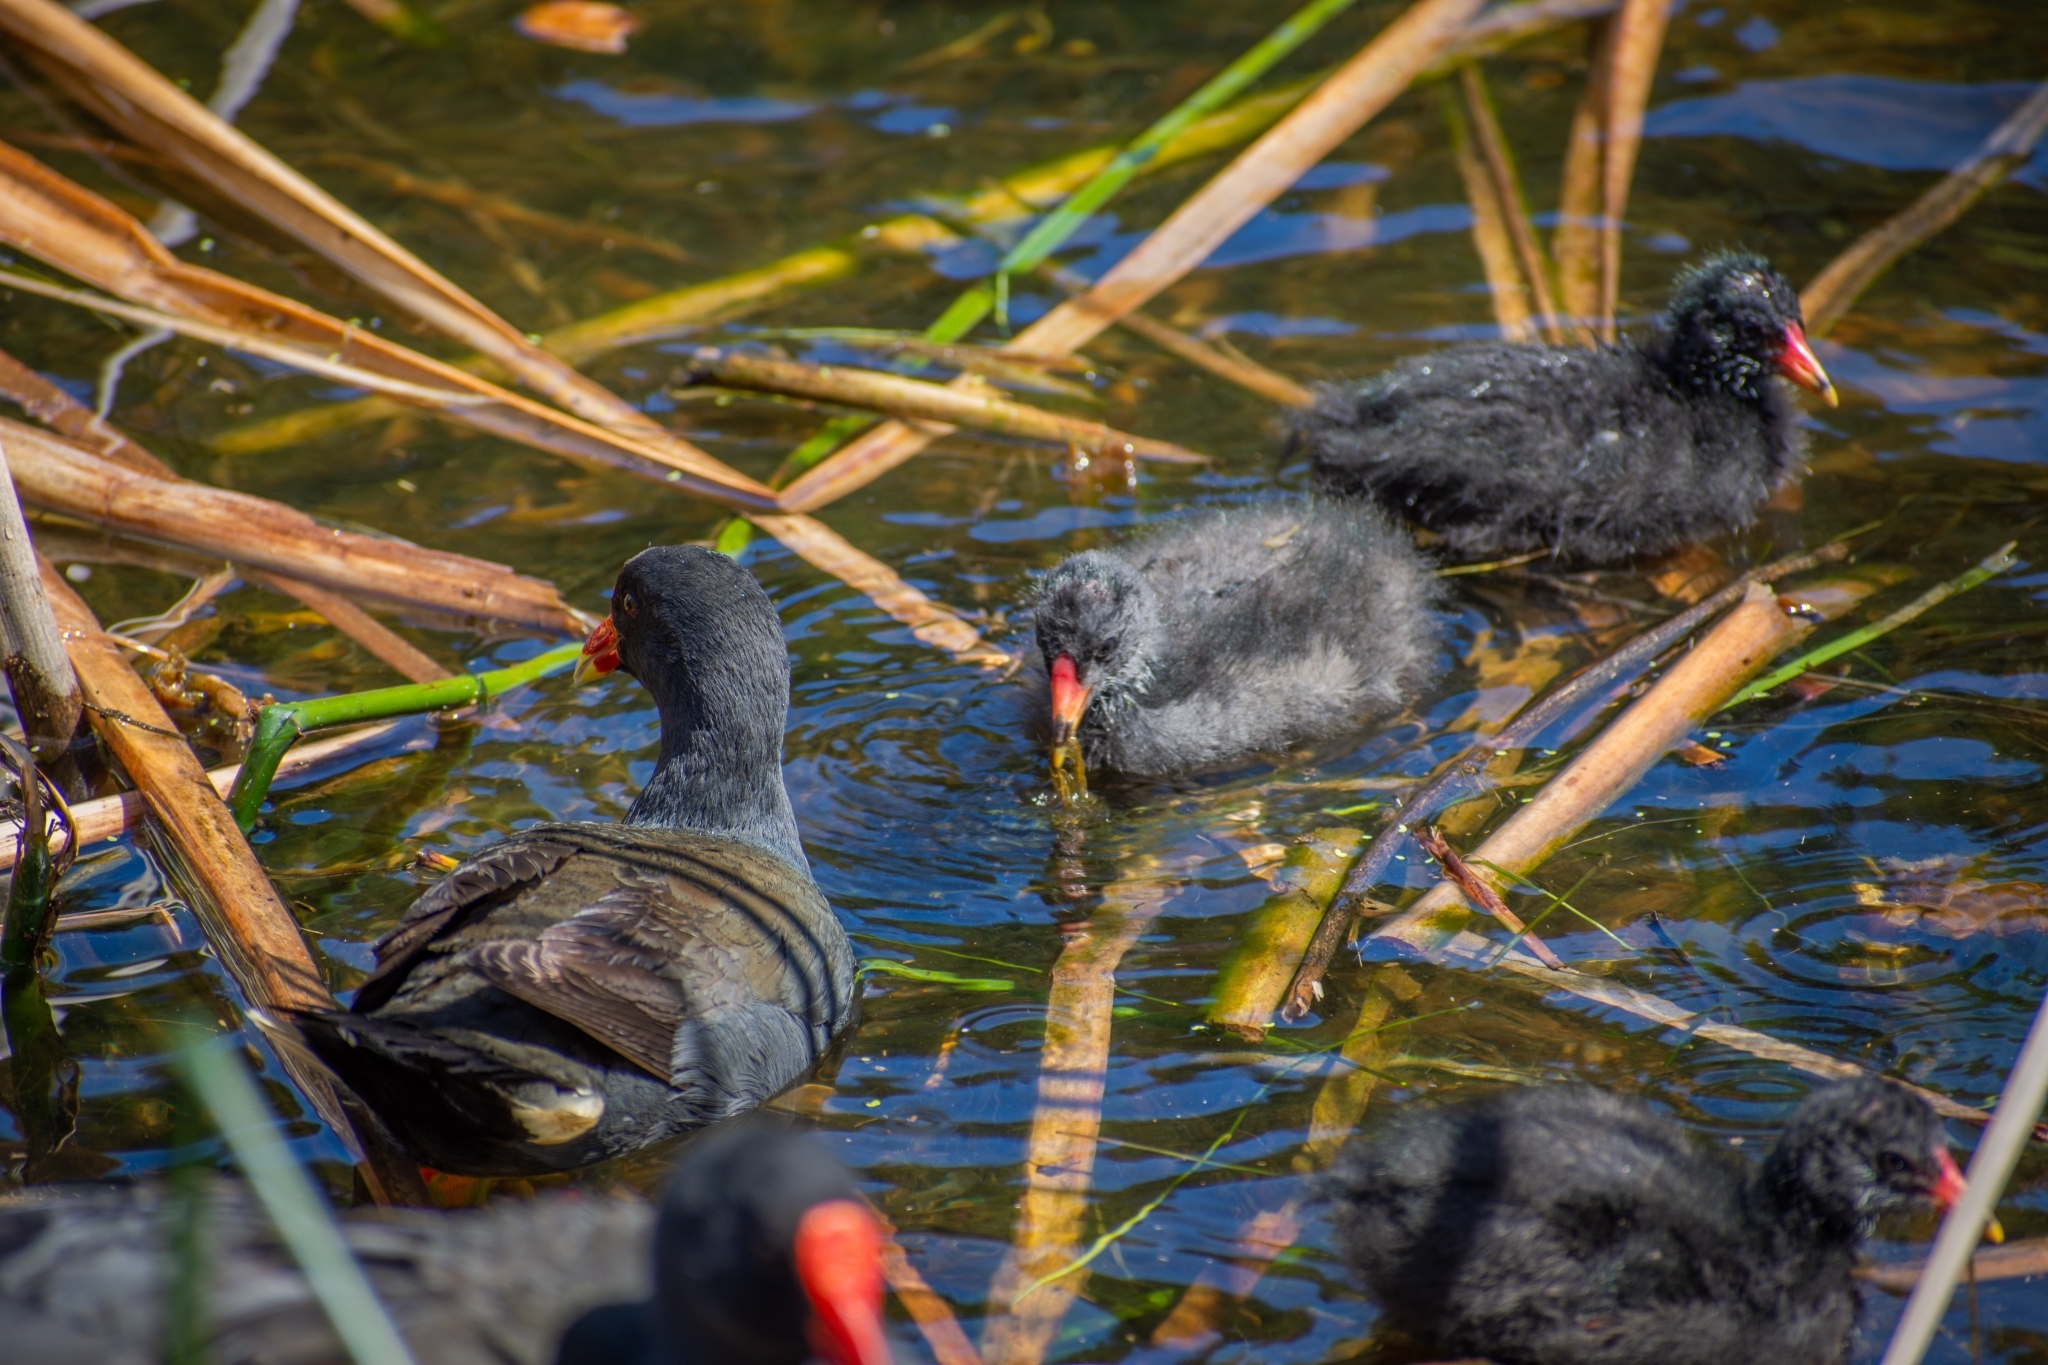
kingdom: Animalia
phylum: Chordata
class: Aves
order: Gruiformes
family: Rallidae
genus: Gallinula
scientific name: Gallinula tenebrosa
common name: Dusky moorhen
